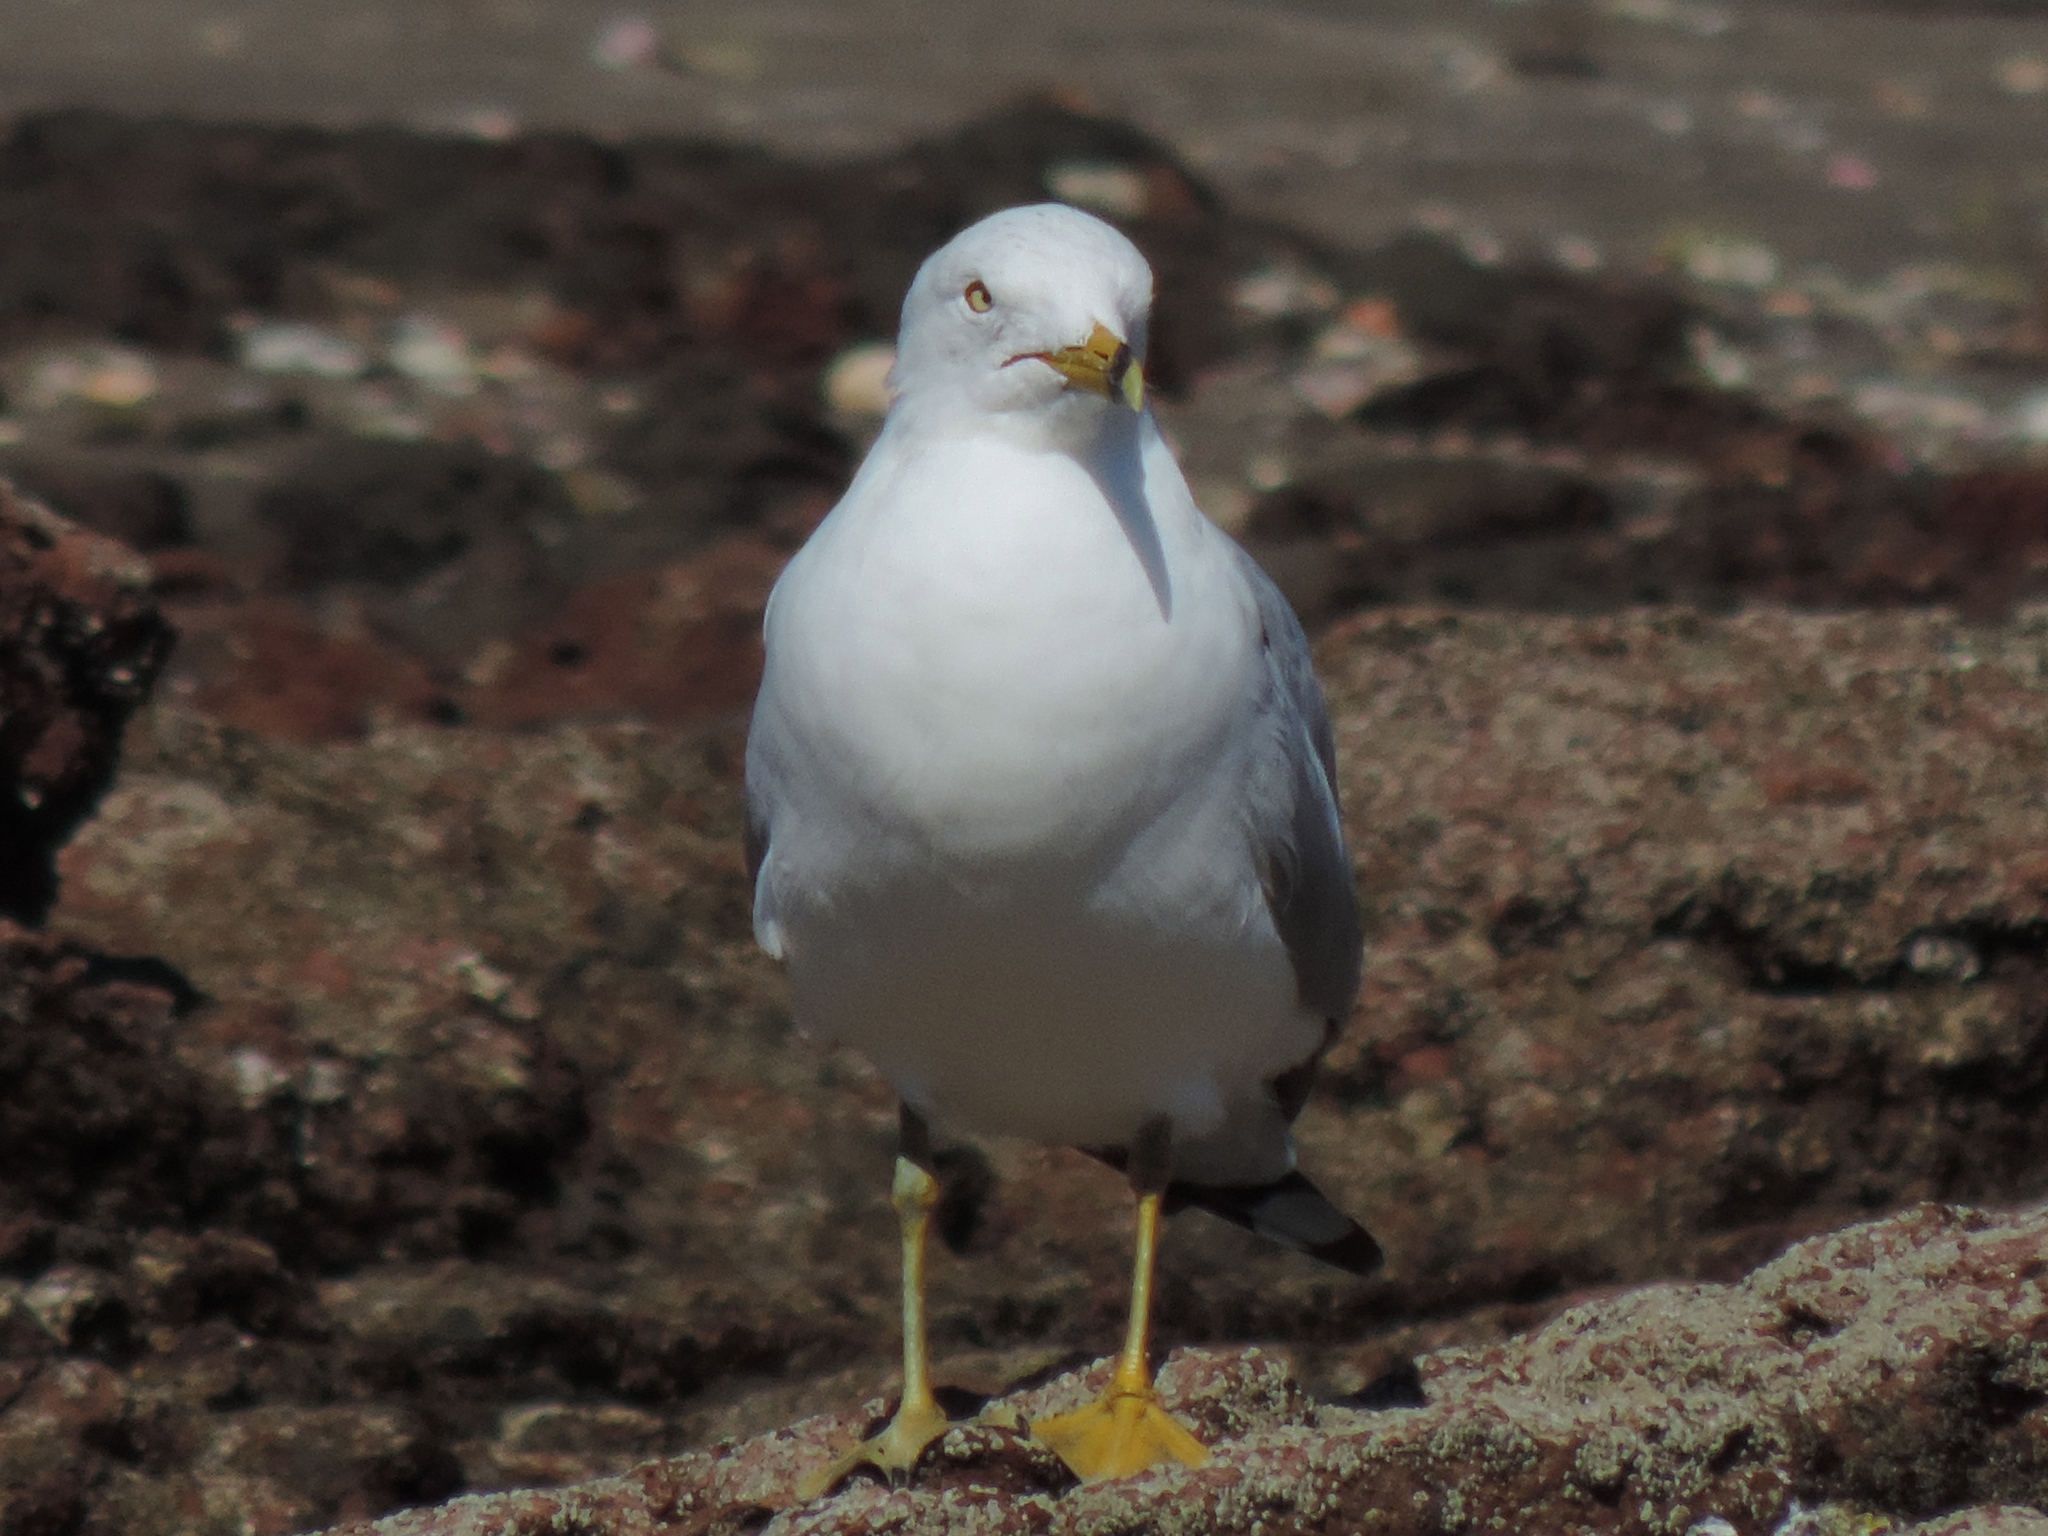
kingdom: Animalia
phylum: Chordata
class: Aves
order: Charadriiformes
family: Laridae
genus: Larus
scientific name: Larus delawarensis
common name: Ring-billed gull
